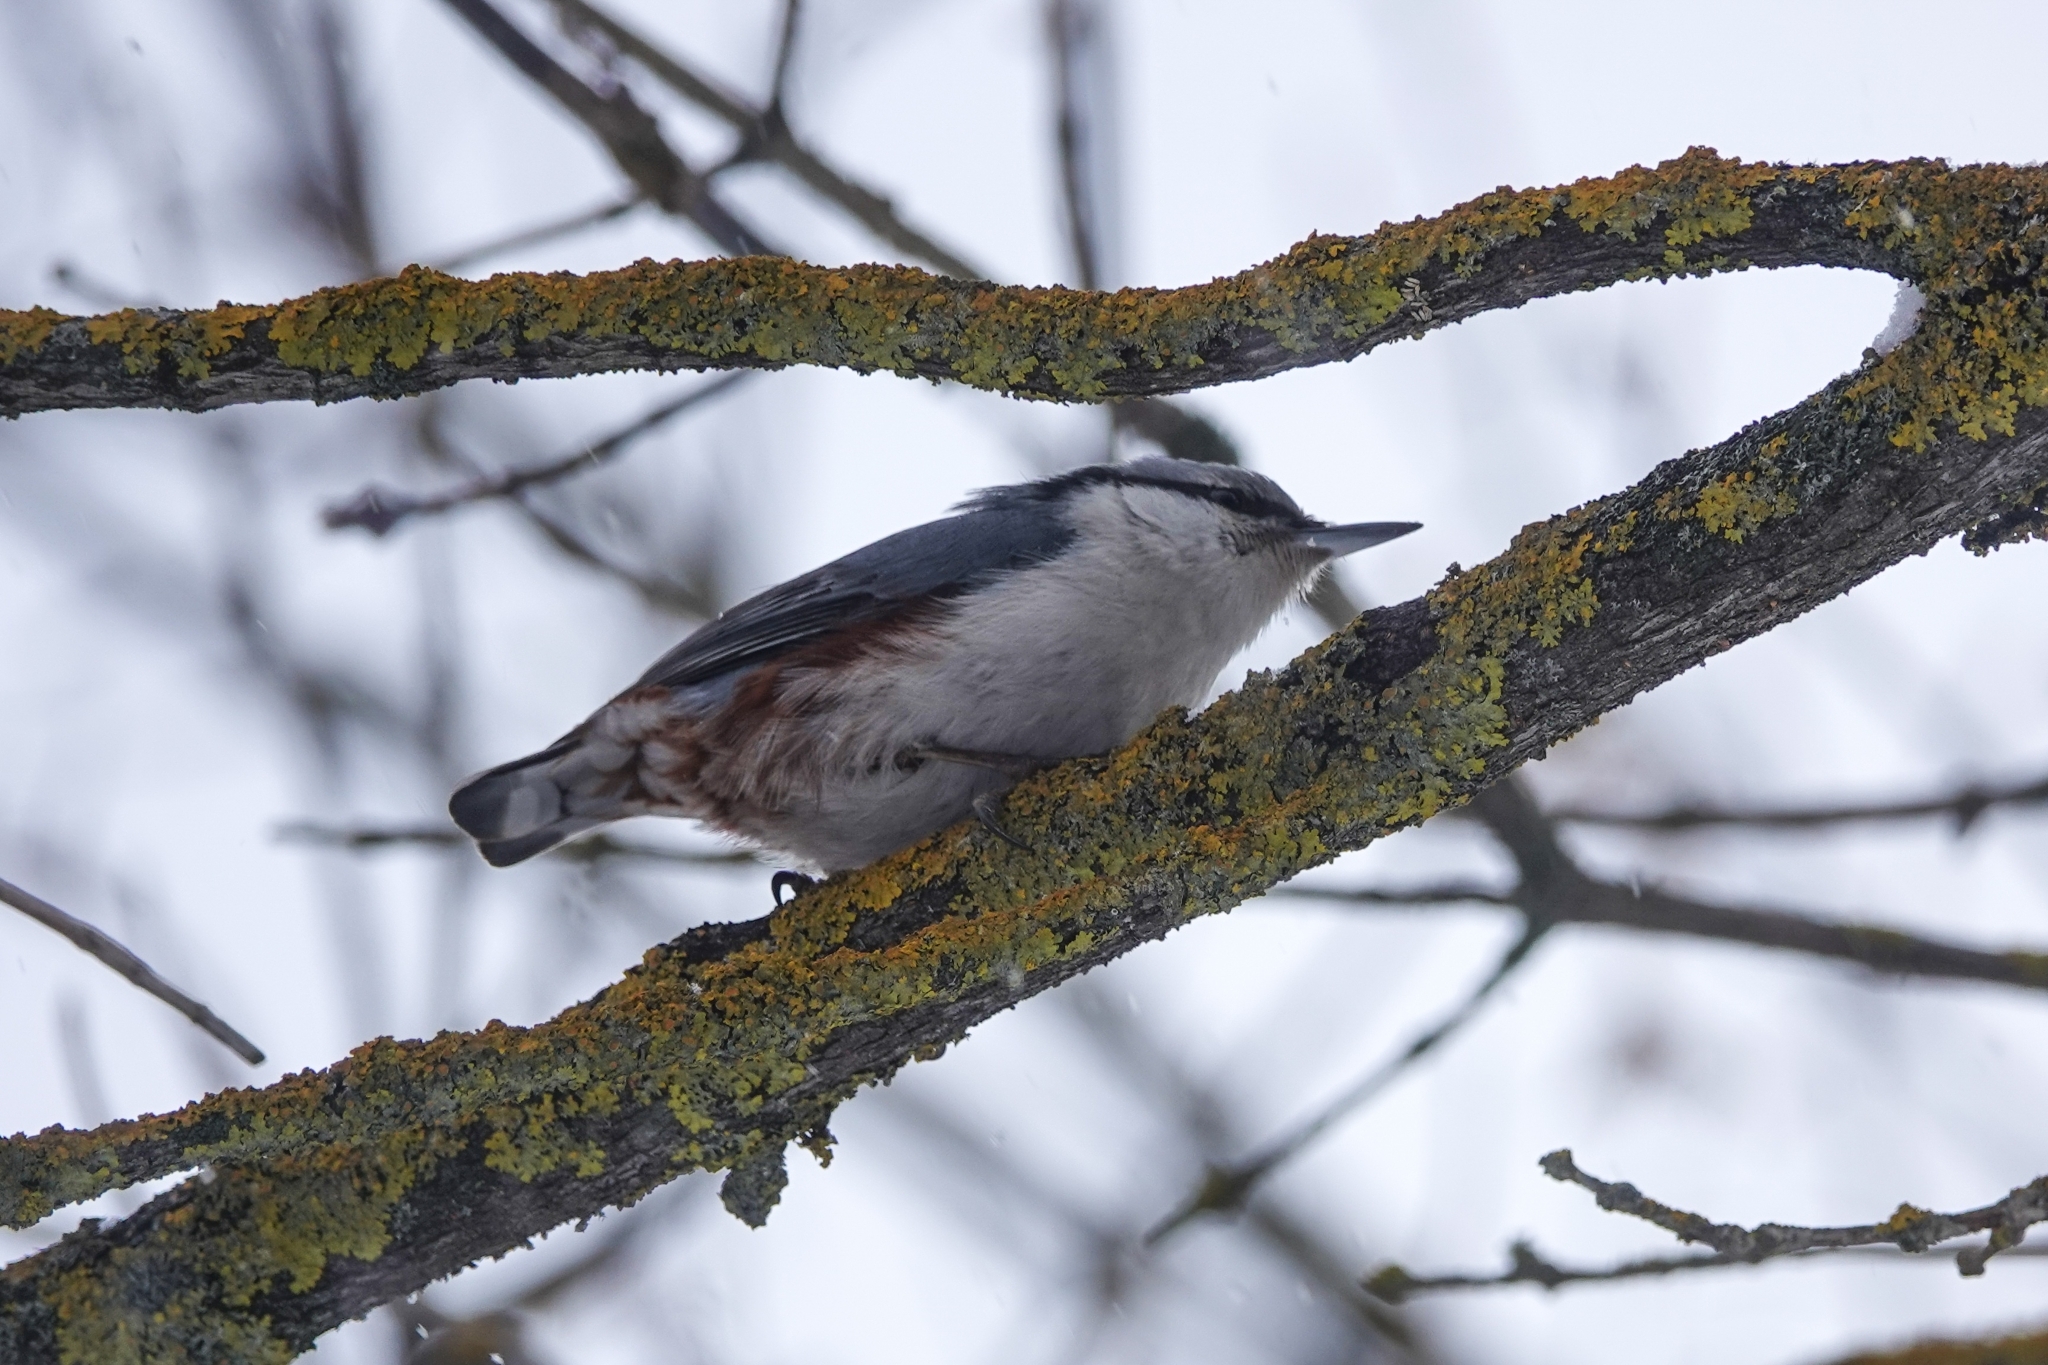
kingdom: Animalia
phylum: Chordata
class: Aves
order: Passeriformes
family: Sittidae
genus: Sitta
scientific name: Sitta europaea
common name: Eurasian nuthatch
